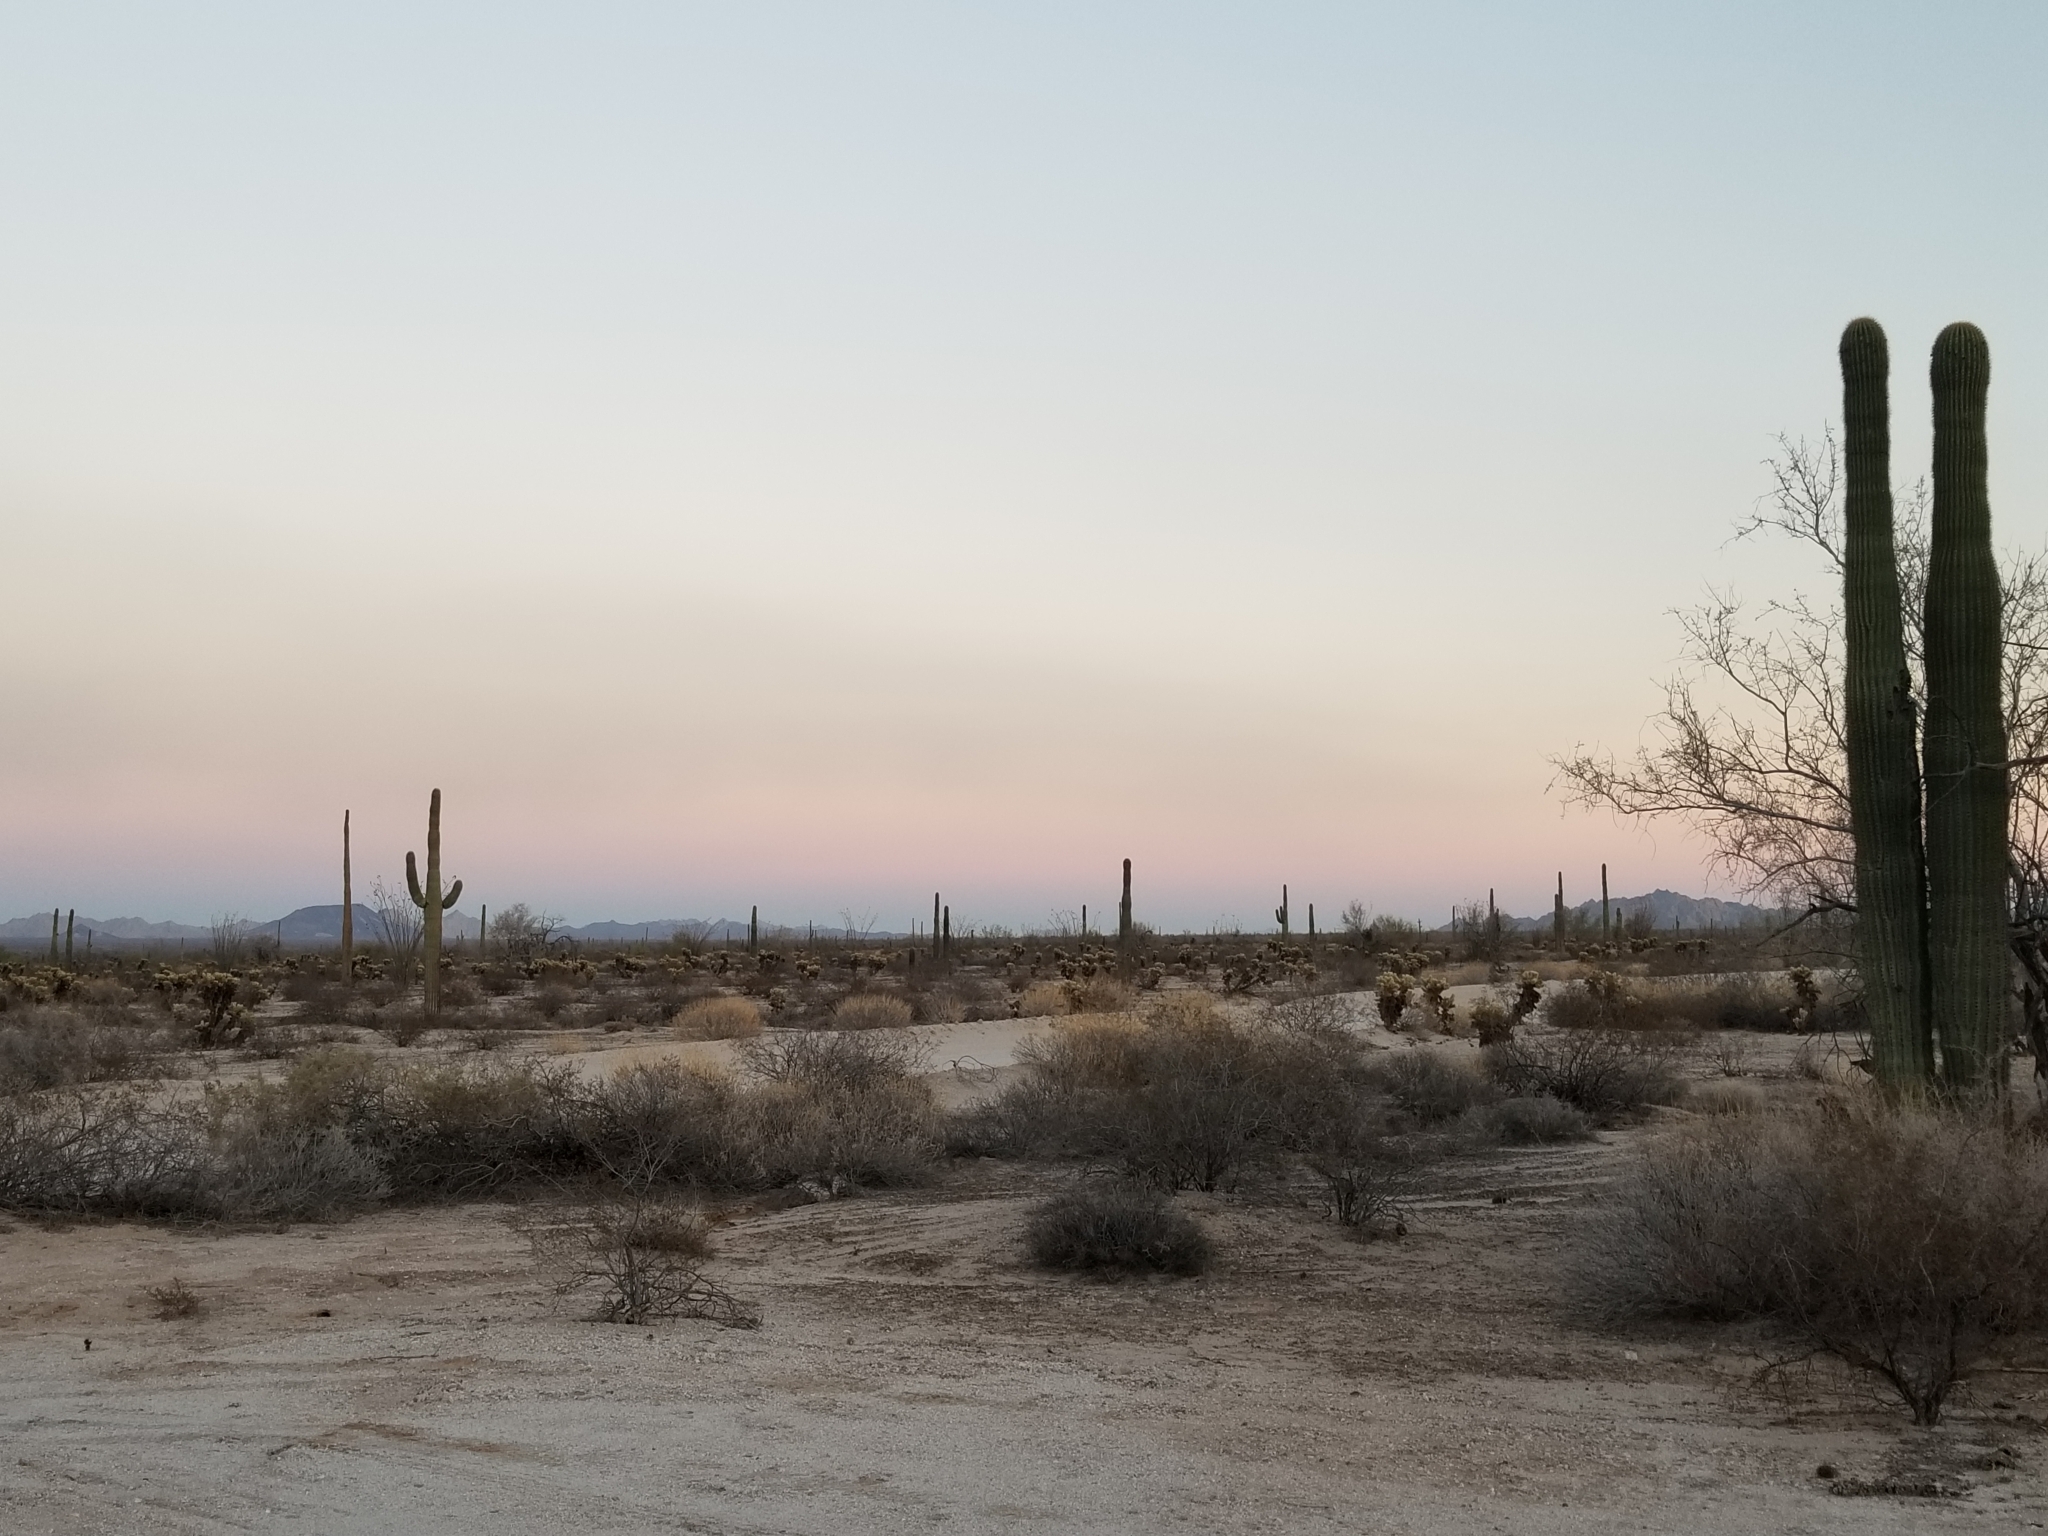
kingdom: Plantae
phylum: Tracheophyta
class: Magnoliopsida
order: Caryophyllales
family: Cactaceae
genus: Carnegiea
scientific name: Carnegiea gigantea
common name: Saguaro
